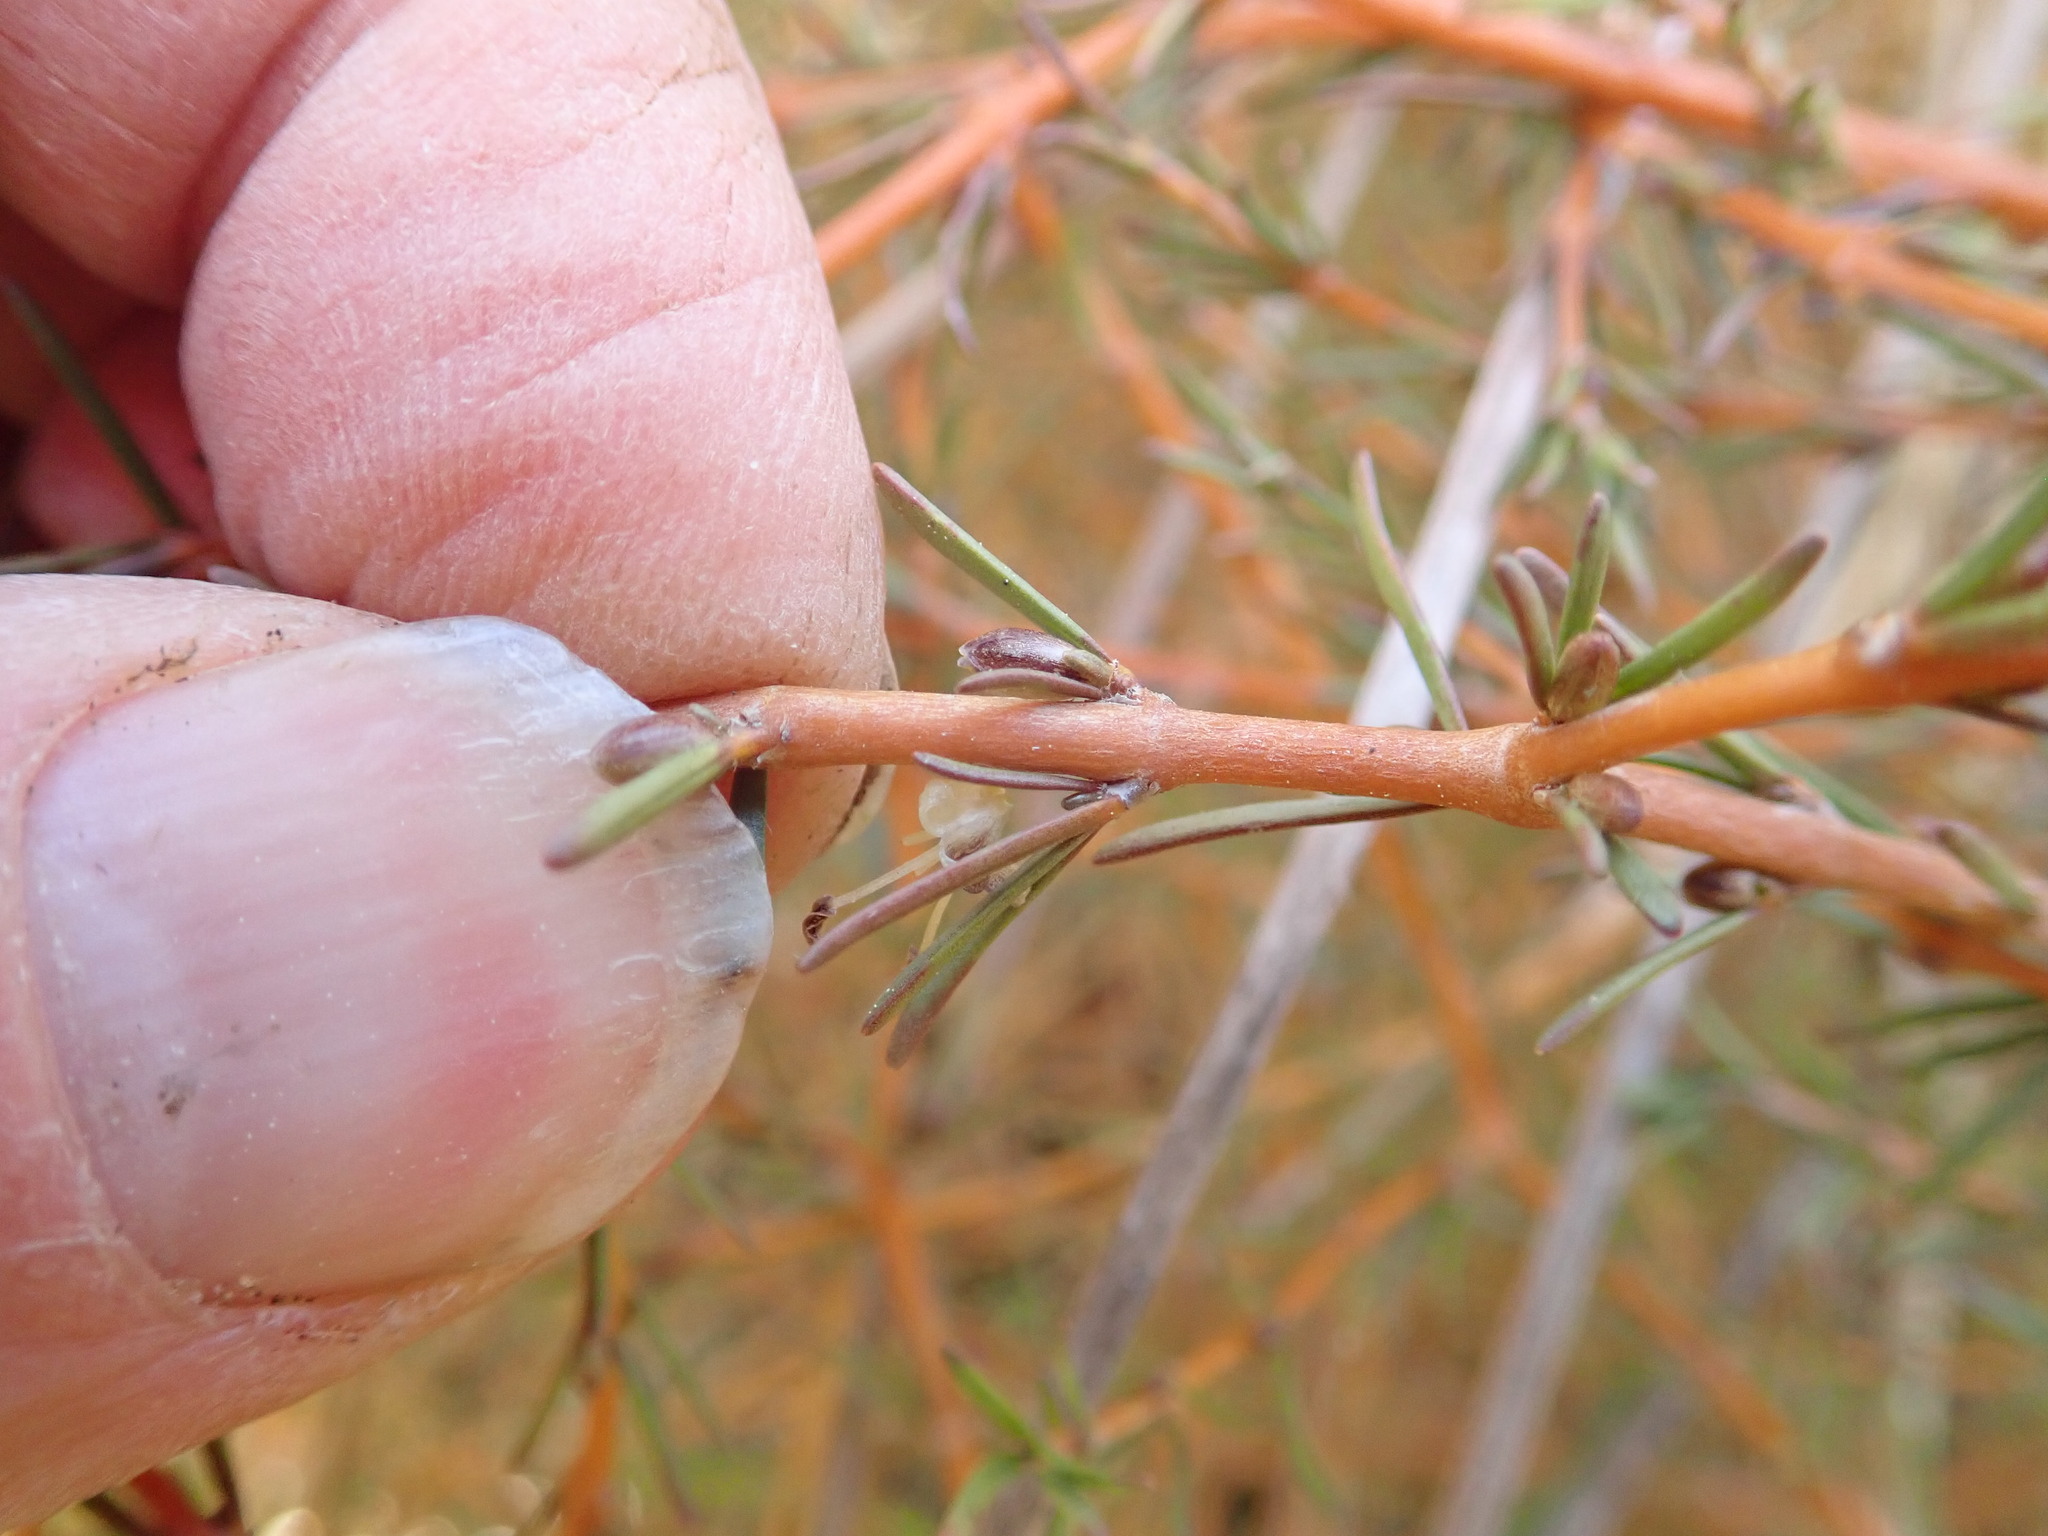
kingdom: Plantae
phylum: Tracheophyta
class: Magnoliopsida
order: Gentianales
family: Rubiaceae
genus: Coprosma
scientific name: Coprosma acerosa
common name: Sand coprosma
